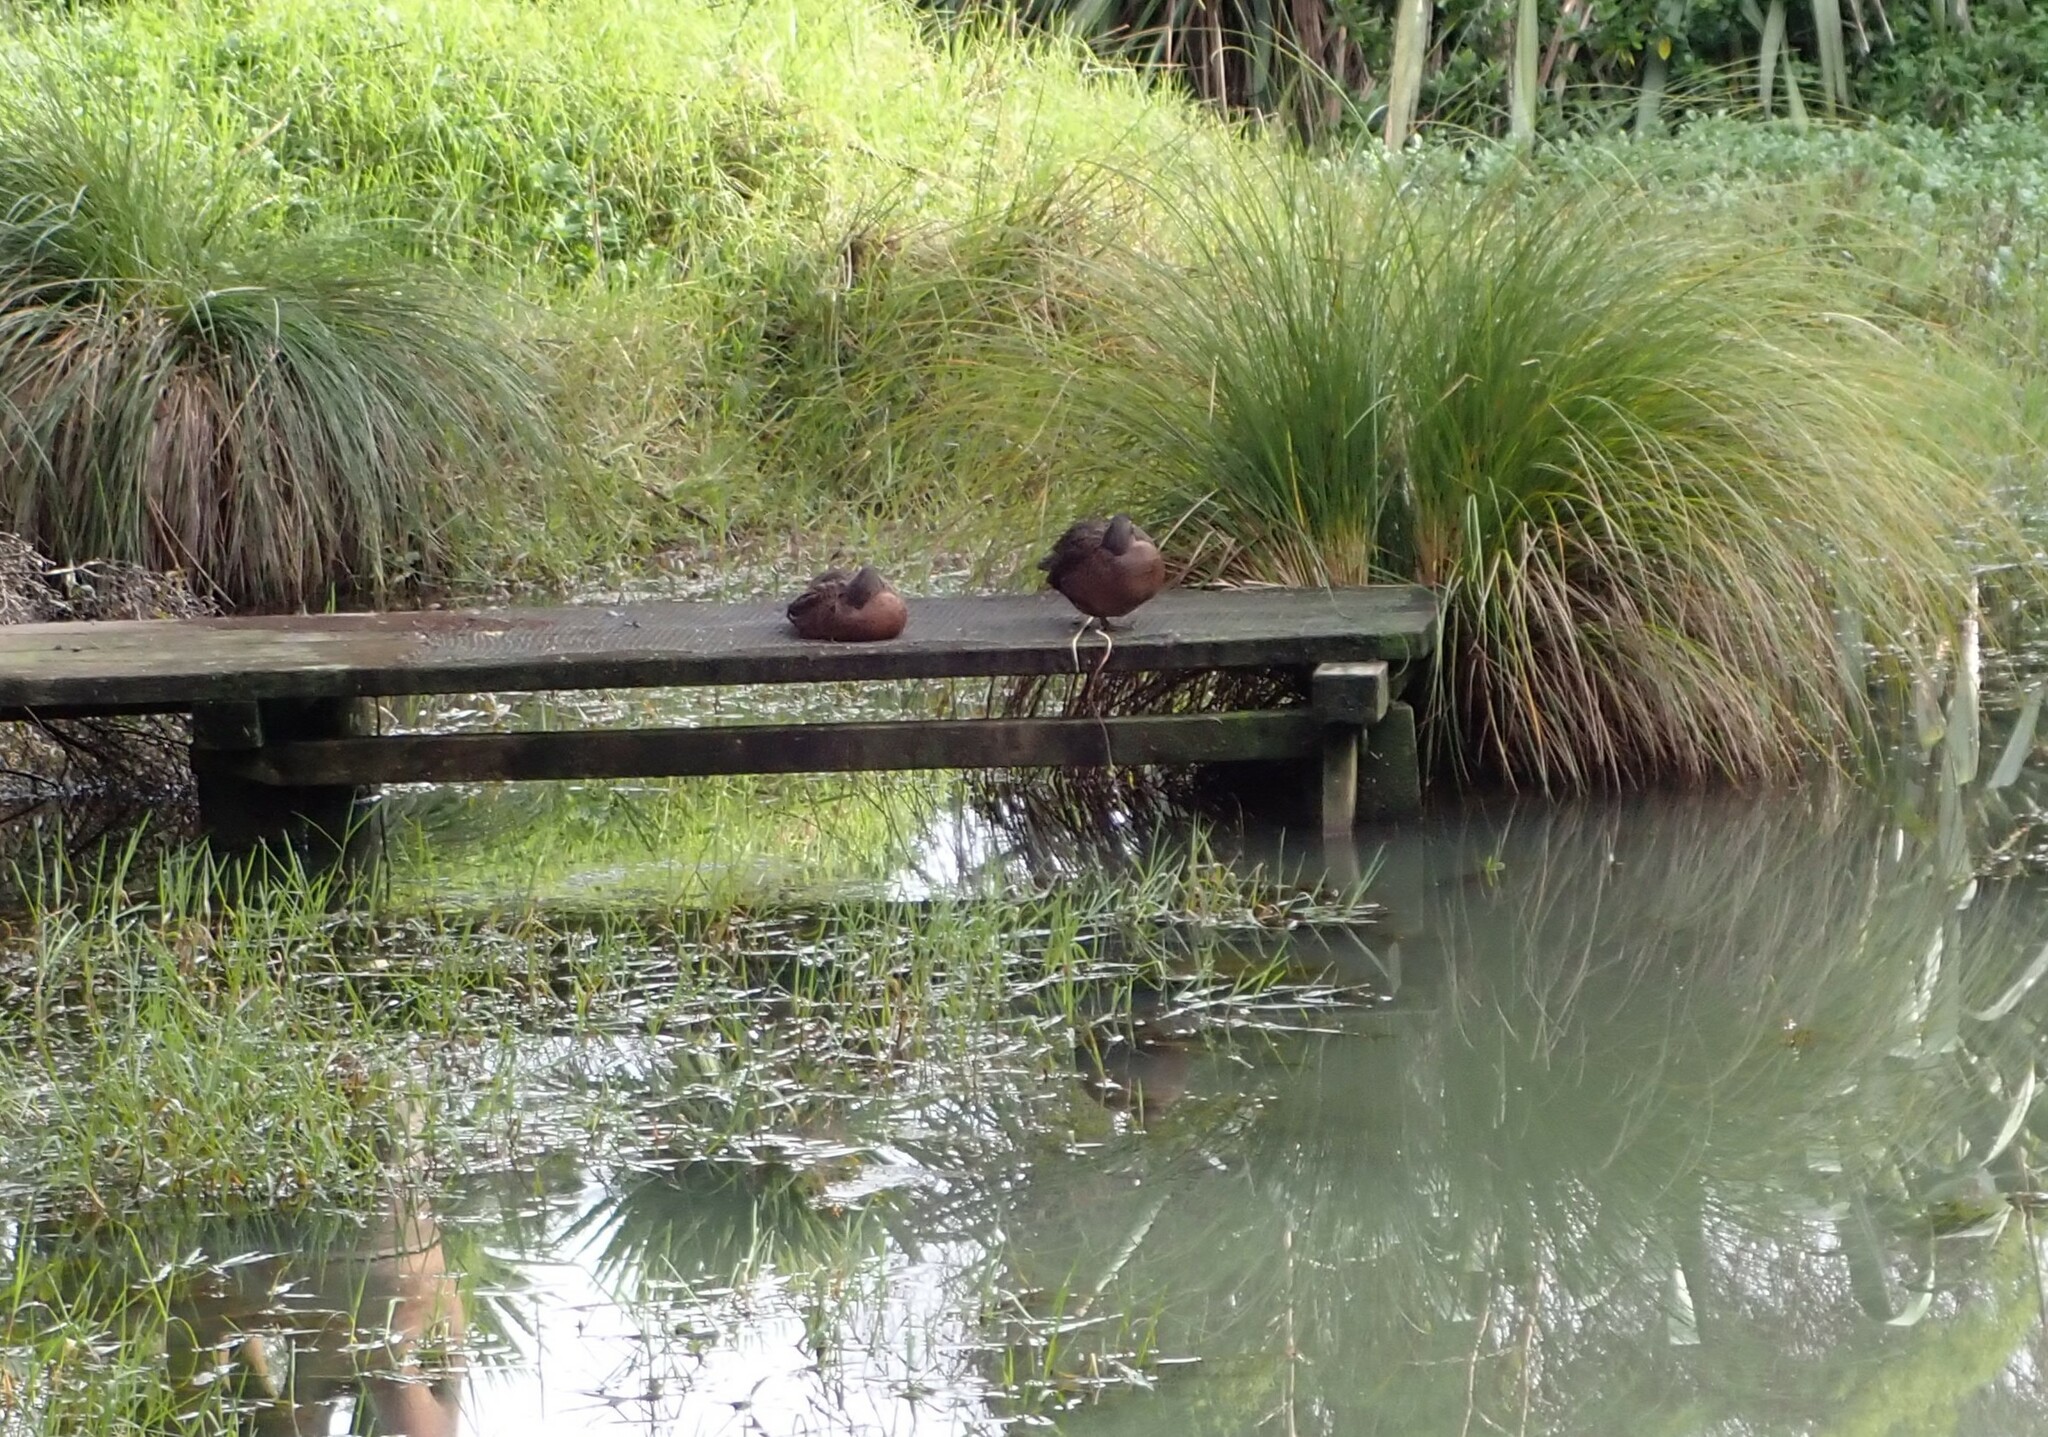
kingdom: Animalia
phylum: Chordata
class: Aves
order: Anseriformes
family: Anatidae
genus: Anas
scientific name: Anas chlorotis
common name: Brown teal
